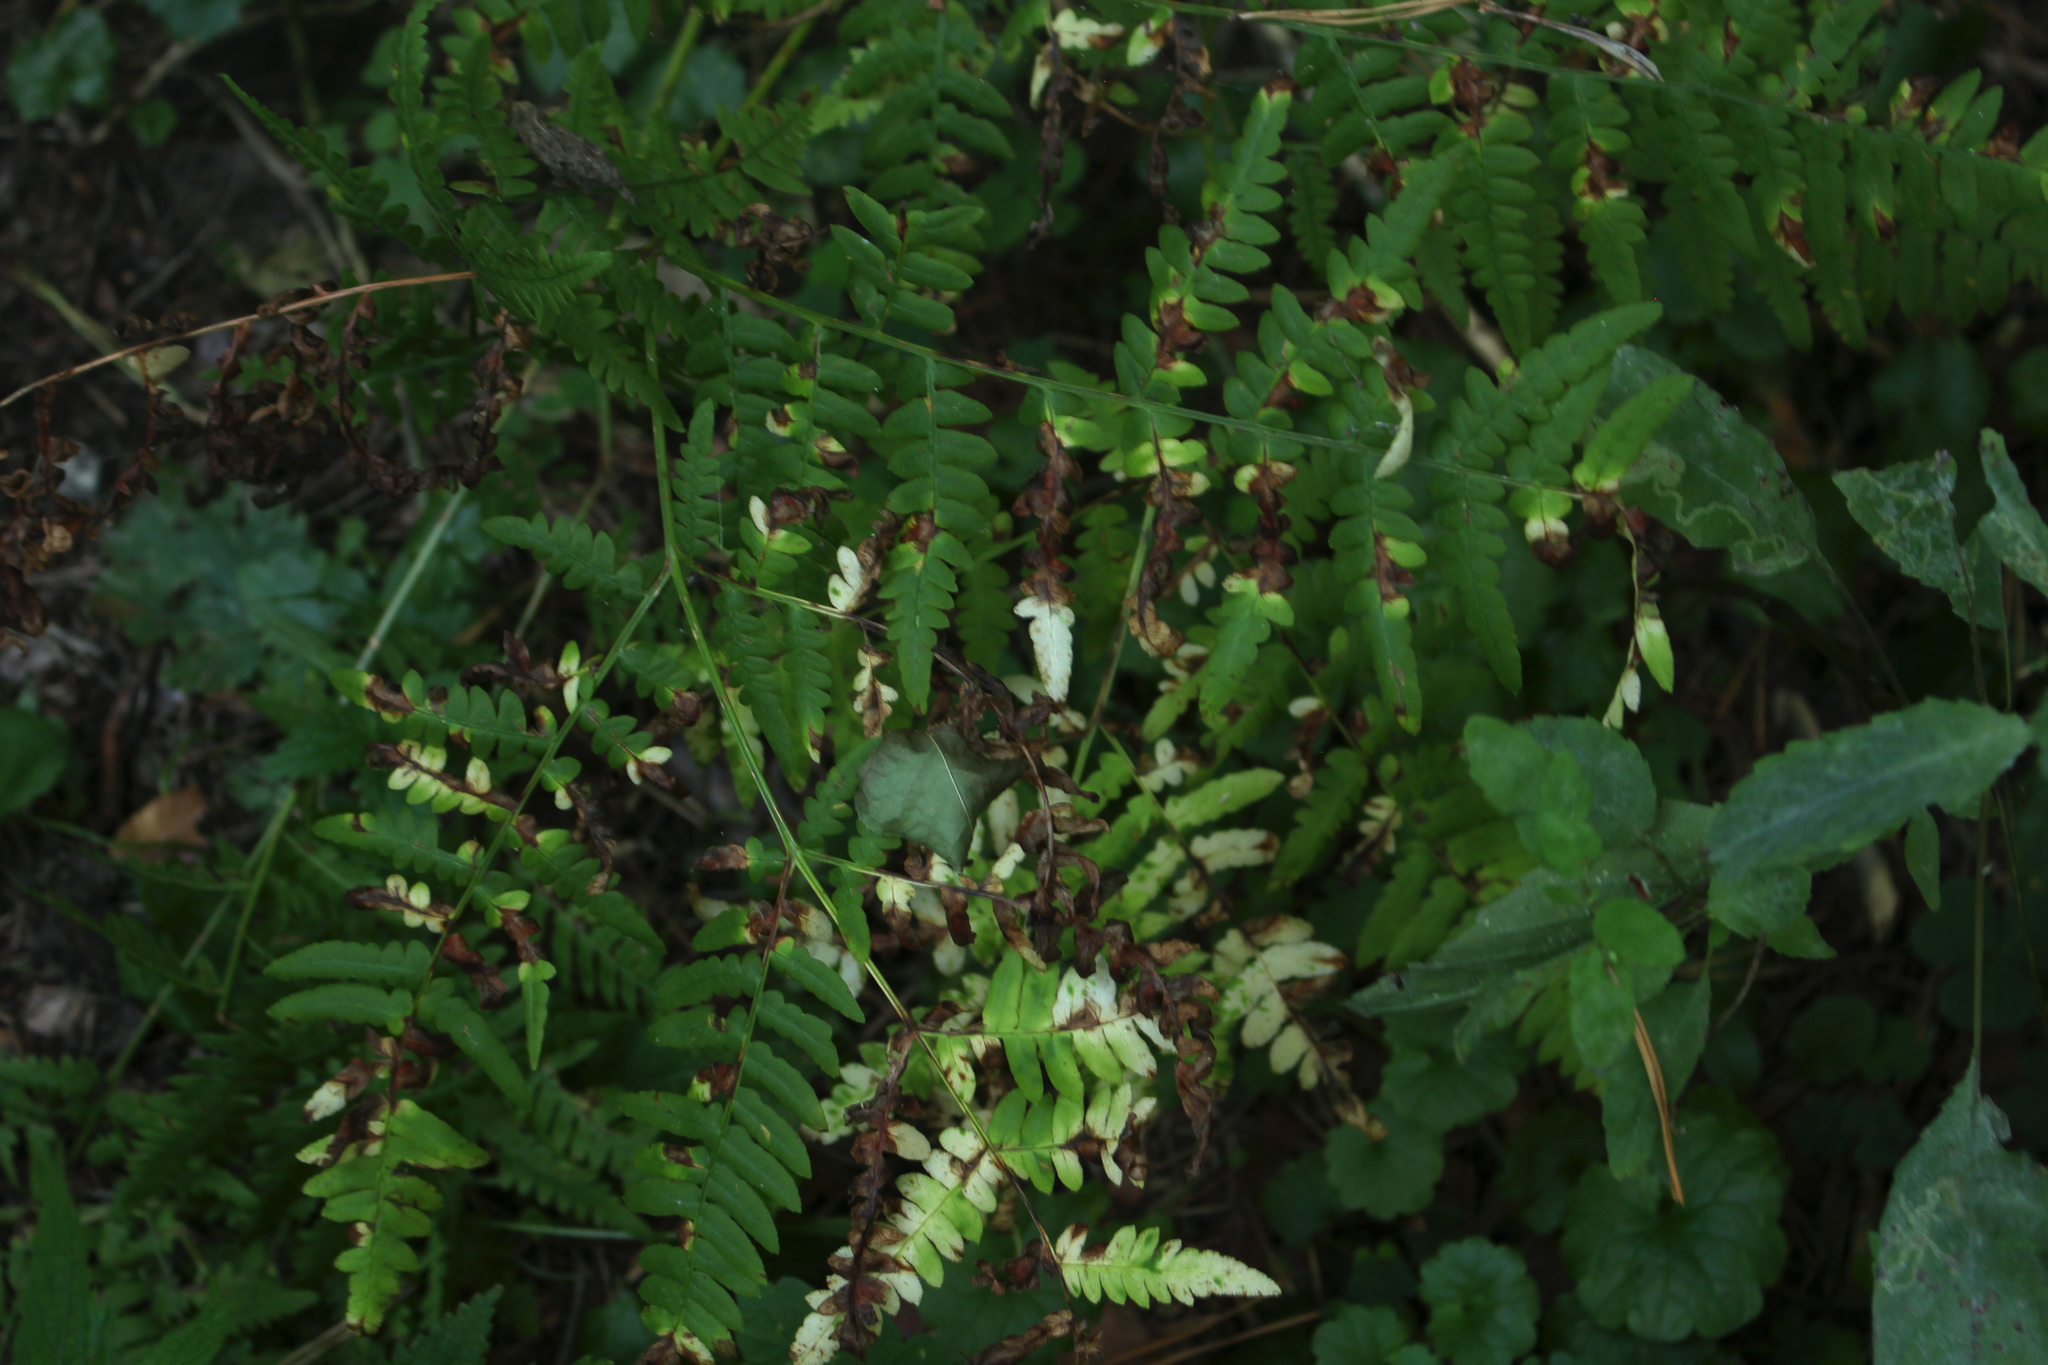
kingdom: Plantae
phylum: Tracheophyta
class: Polypodiopsida
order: Polypodiales
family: Dennstaedtiaceae
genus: Pteridium
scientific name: Pteridium aquilinum
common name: Bracken
